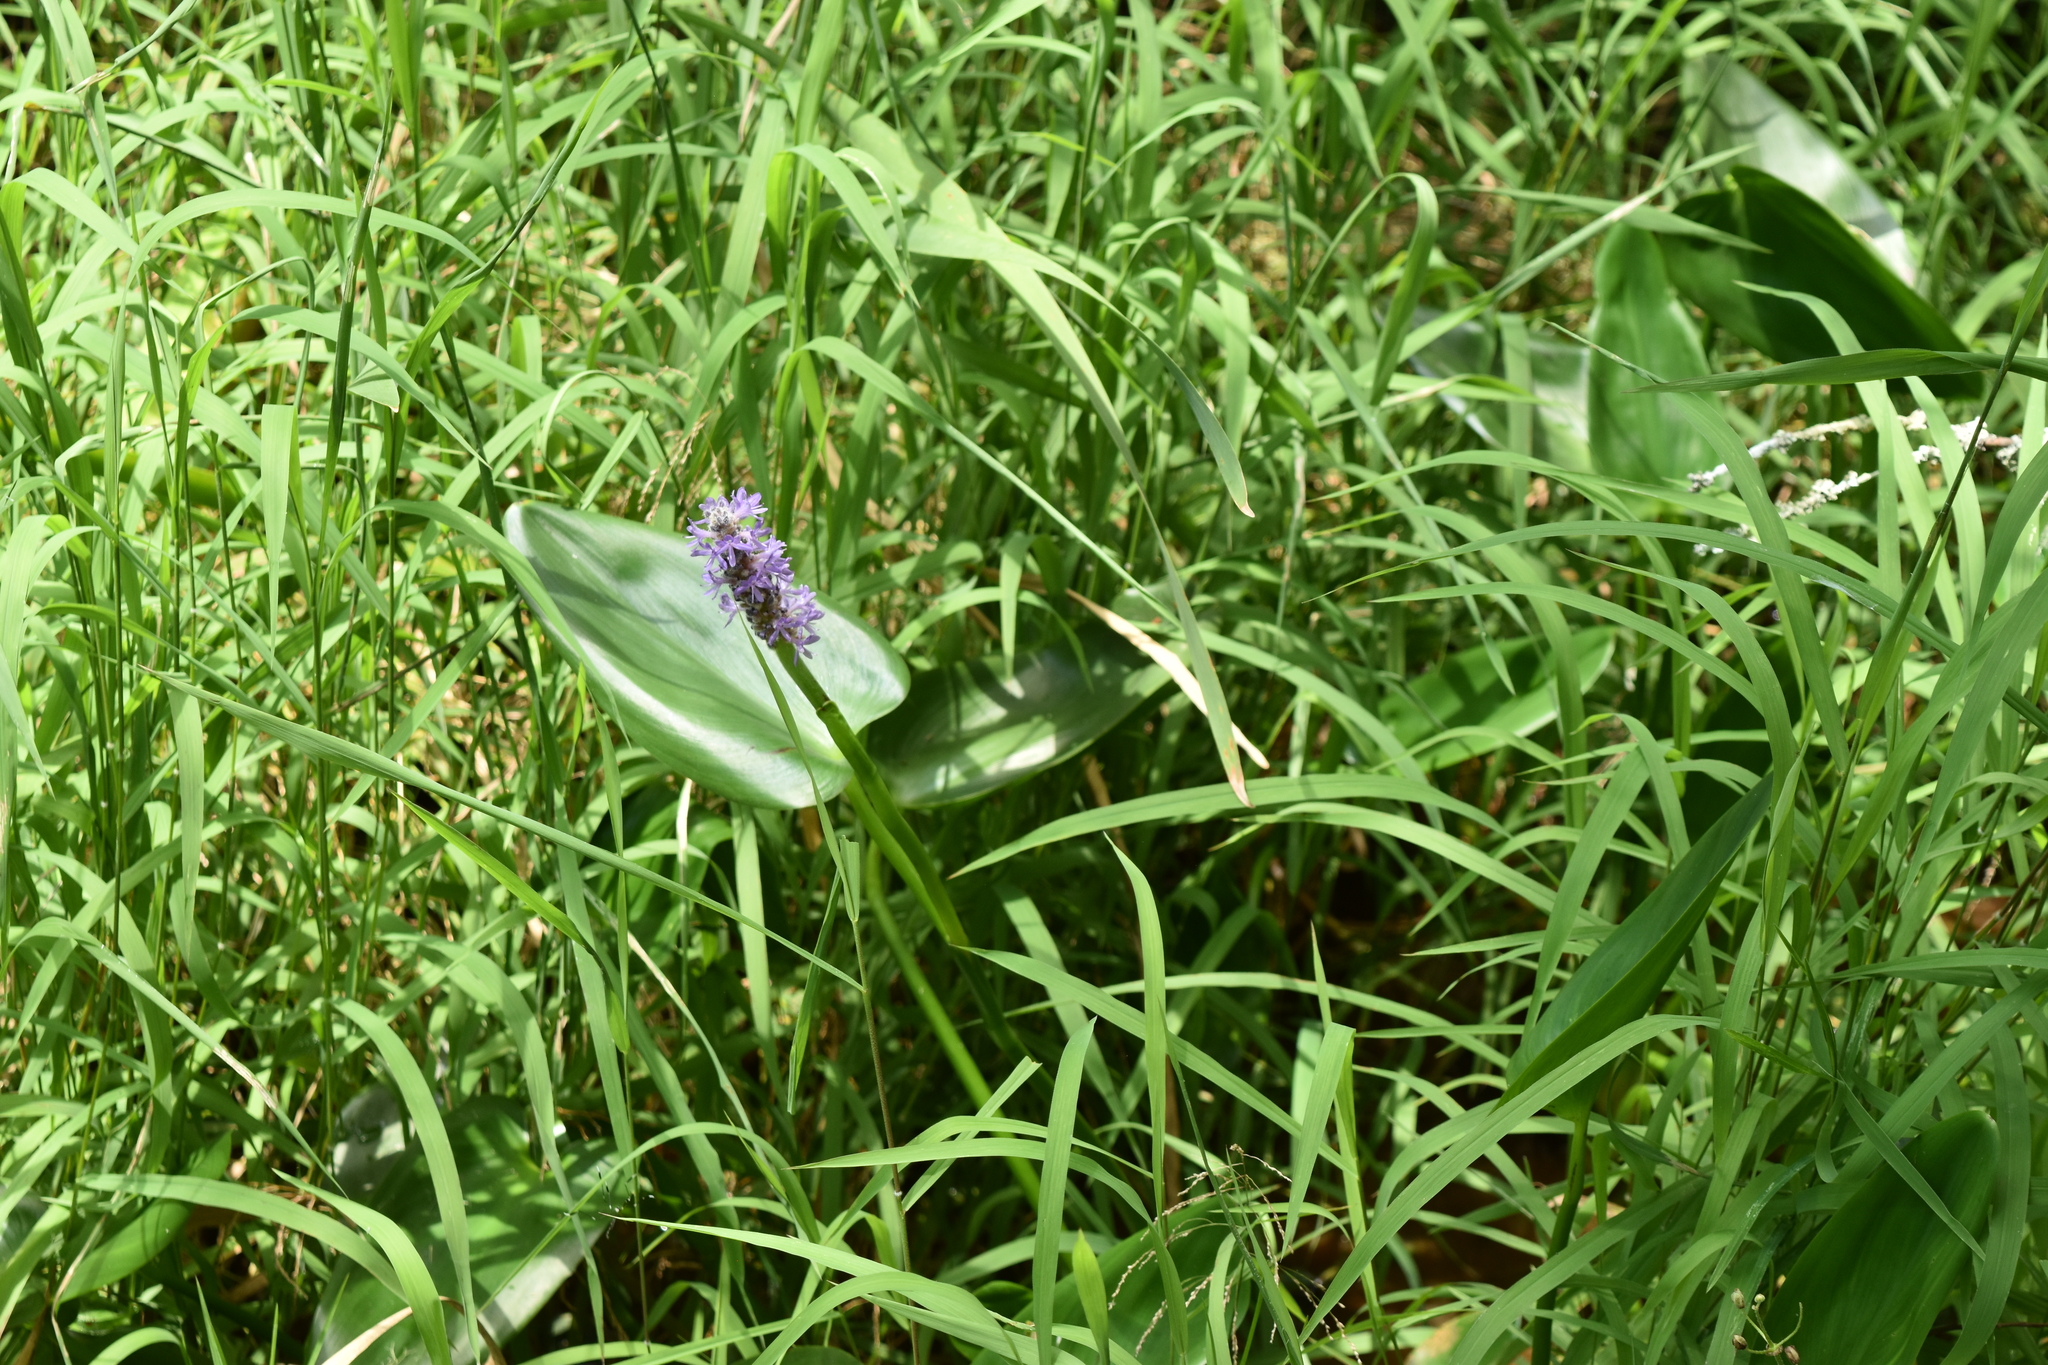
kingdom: Plantae
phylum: Tracheophyta
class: Liliopsida
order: Commelinales
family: Pontederiaceae
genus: Pontederia
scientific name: Pontederia cordata
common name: Pickerelweed
